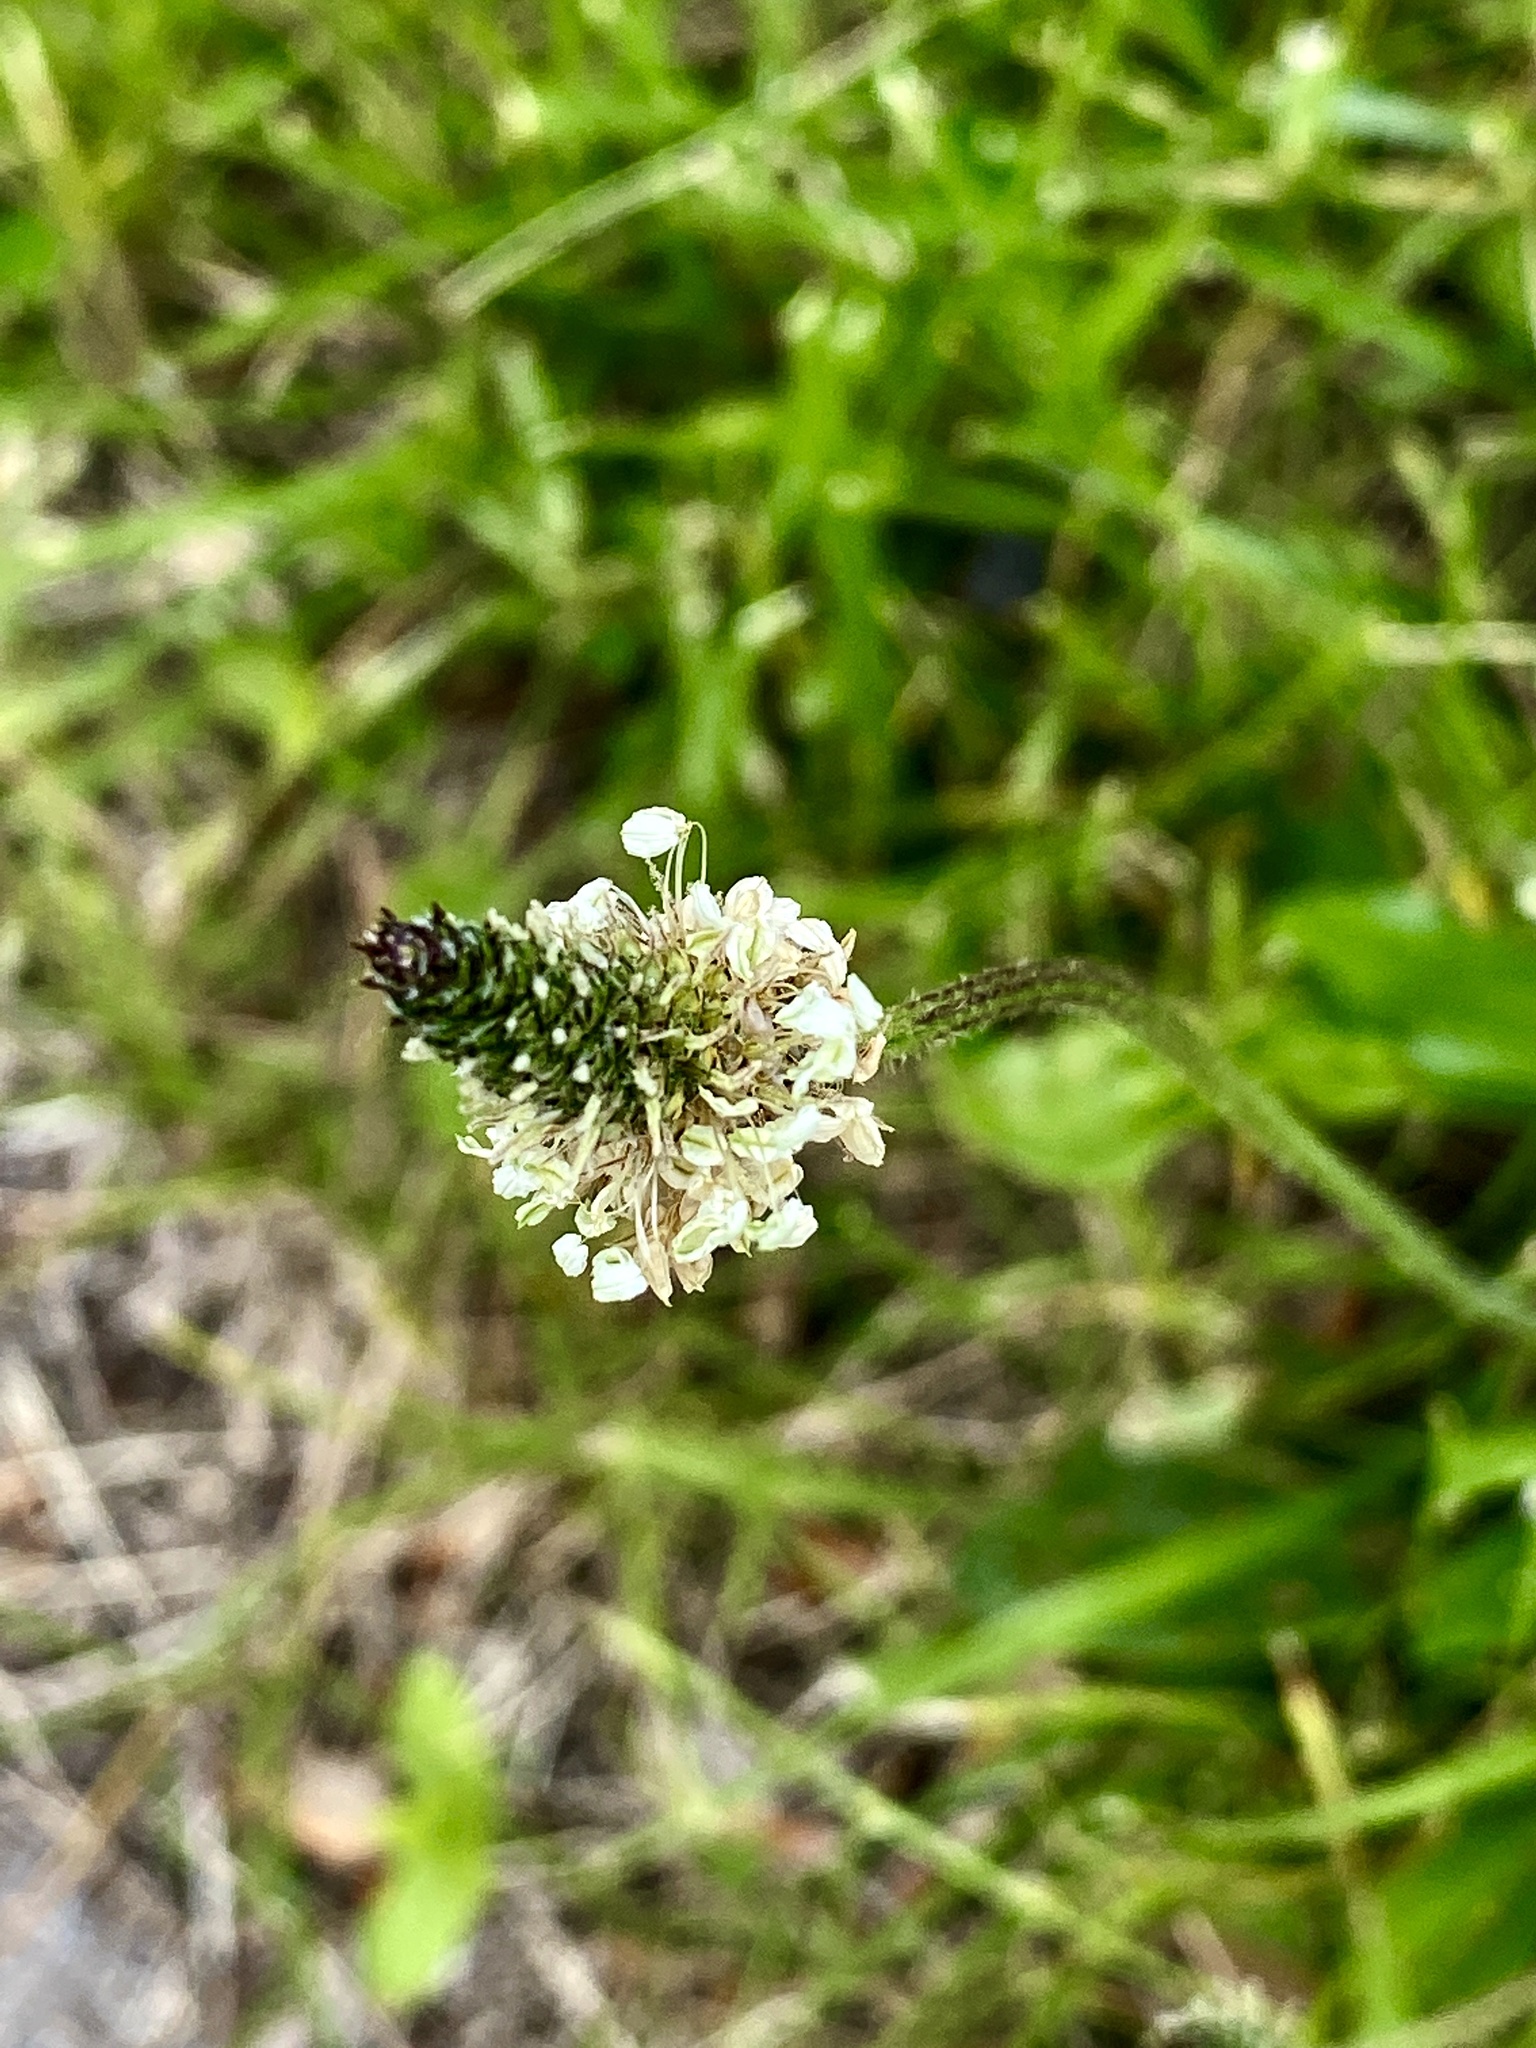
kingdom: Plantae
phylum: Tracheophyta
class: Magnoliopsida
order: Lamiales
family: Plantaginaceae
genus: Plantago
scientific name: Plantago lanceolata
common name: Ribwort plantain
